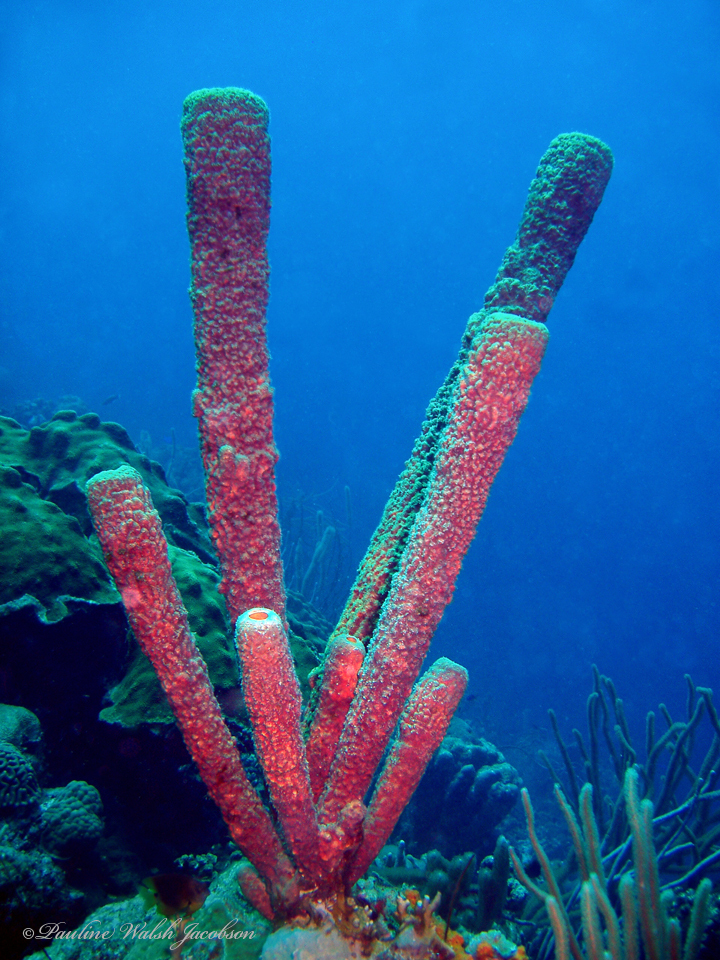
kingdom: Animalia
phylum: Porifera
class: Demospongiae
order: Verongiida
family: Aplysinidae
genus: Aplysina
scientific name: Aplysina archeri
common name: Stove-pipe sponge
